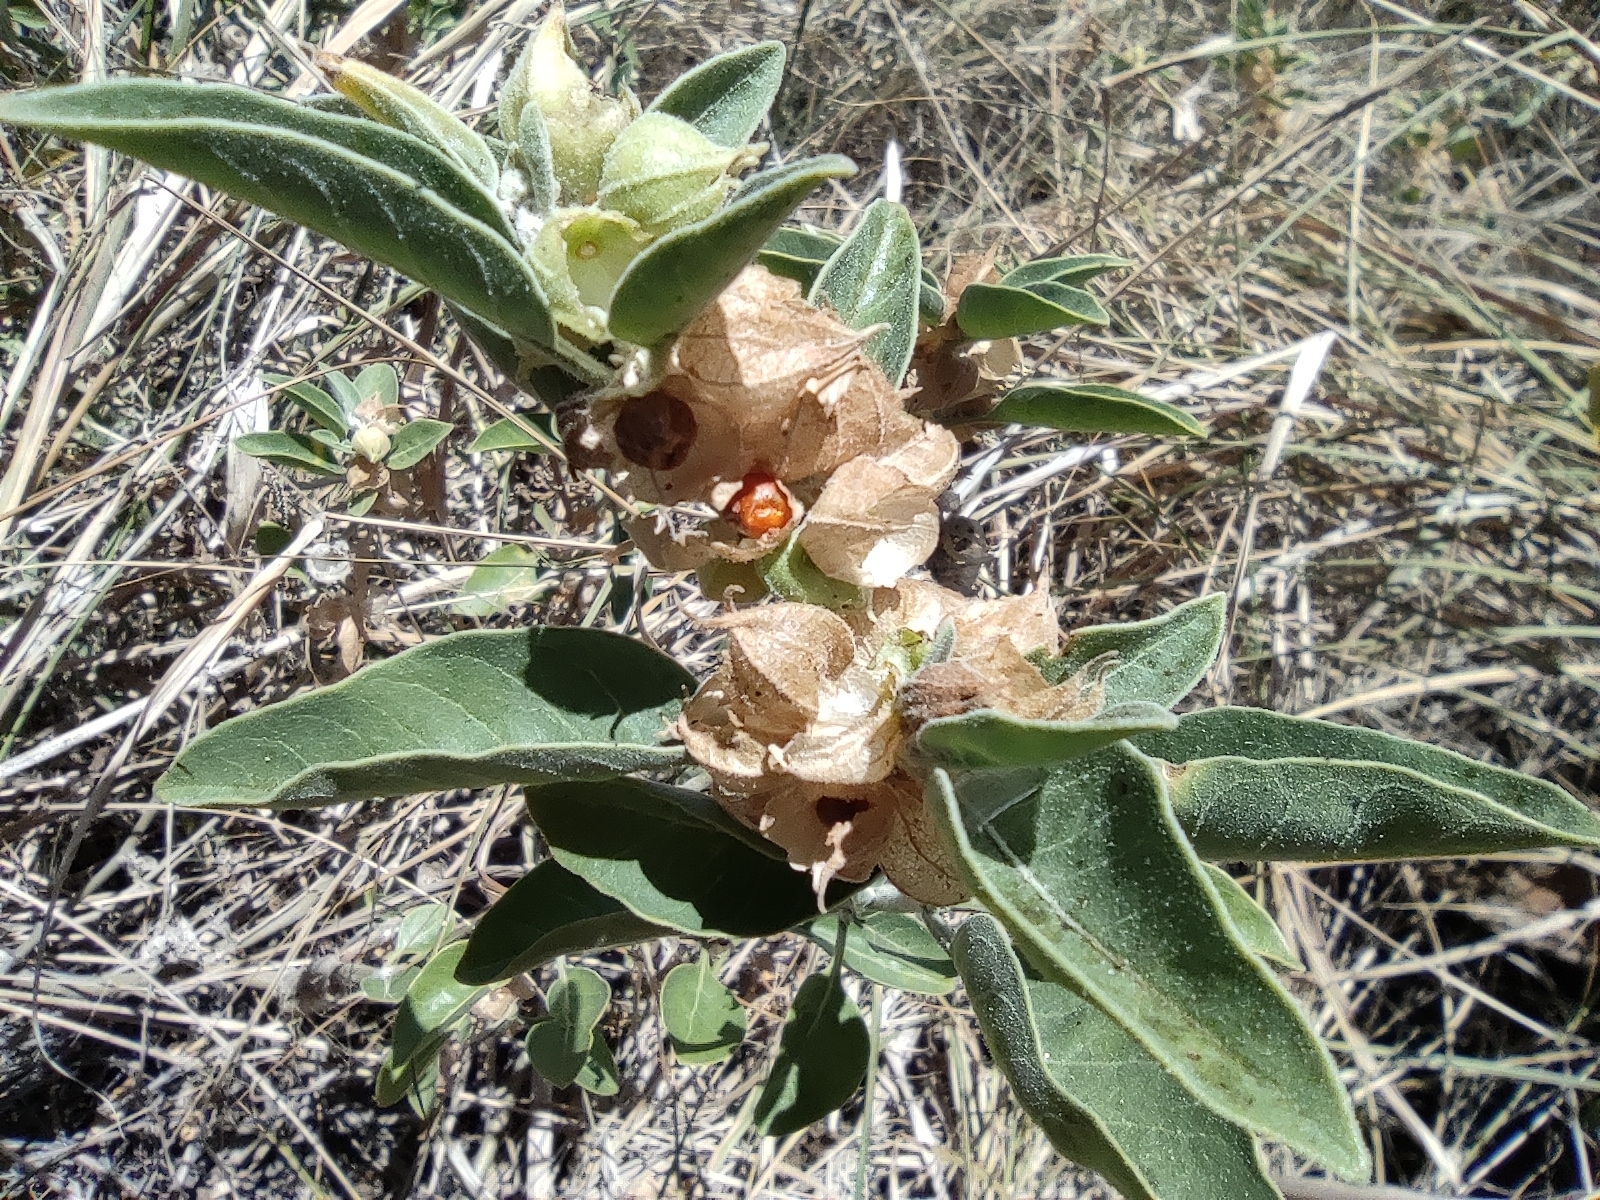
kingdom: Plantae
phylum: Tracheophyta
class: Magnoliopsida
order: Solanales
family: Solanaceae
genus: Withania
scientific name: Withania somnifera
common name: Winter-cherry
